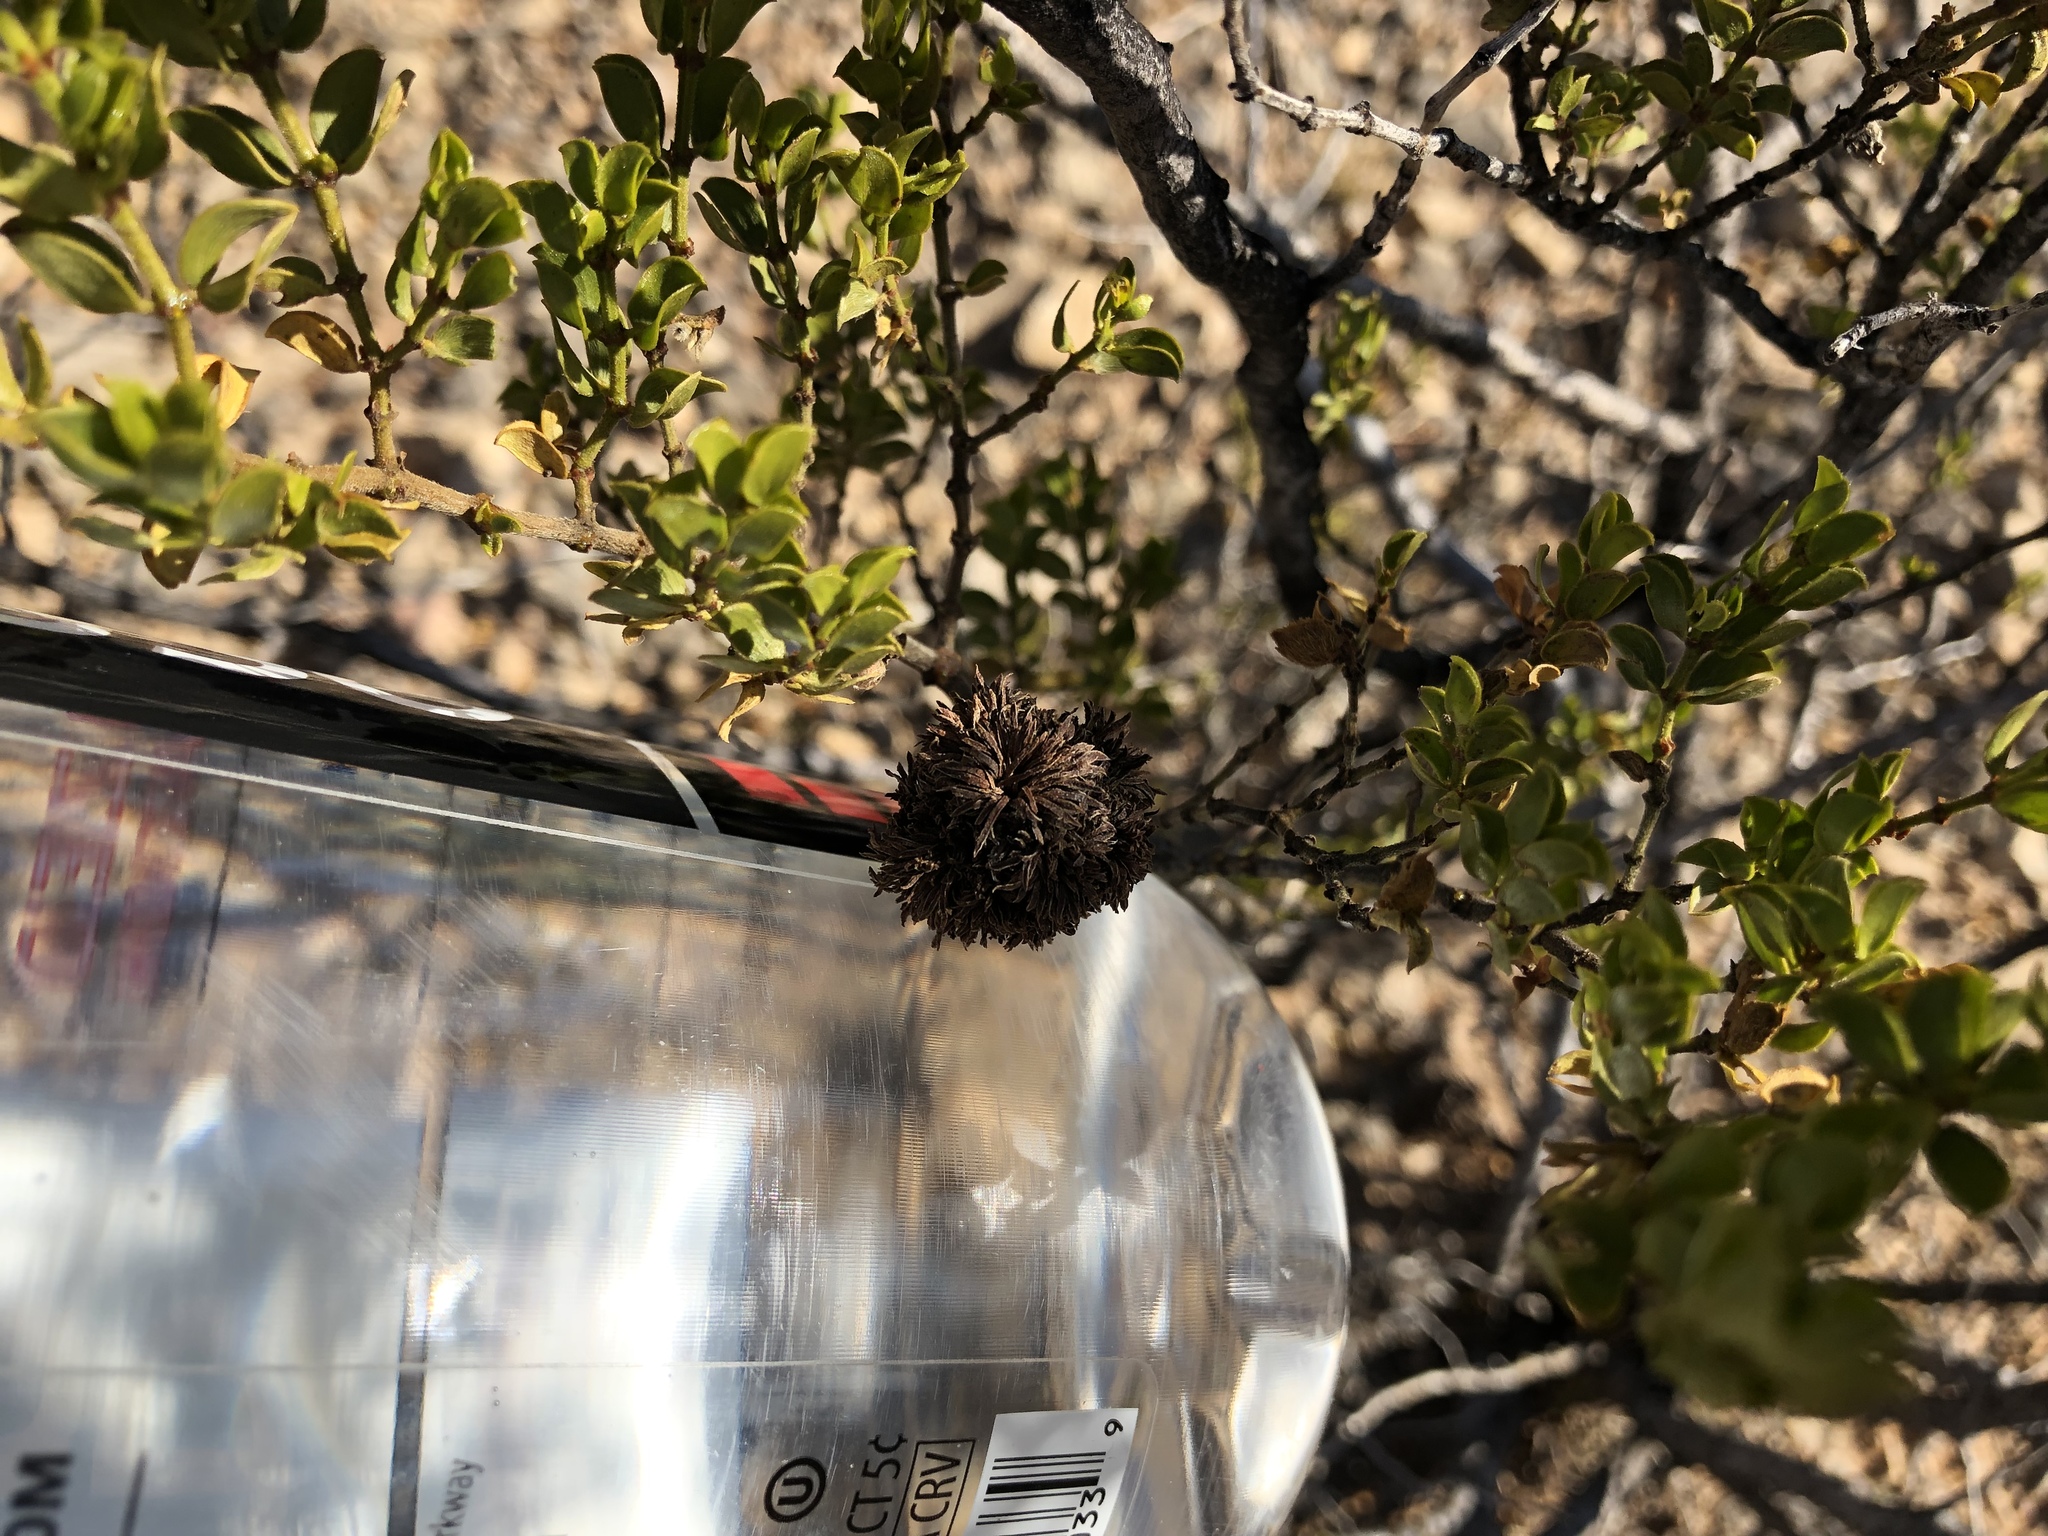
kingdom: Animalia
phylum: Arthropoda
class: Insecta
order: Diptera
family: Cecidomyiidae
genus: Asphondylia
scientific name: Asphondylia auripila
